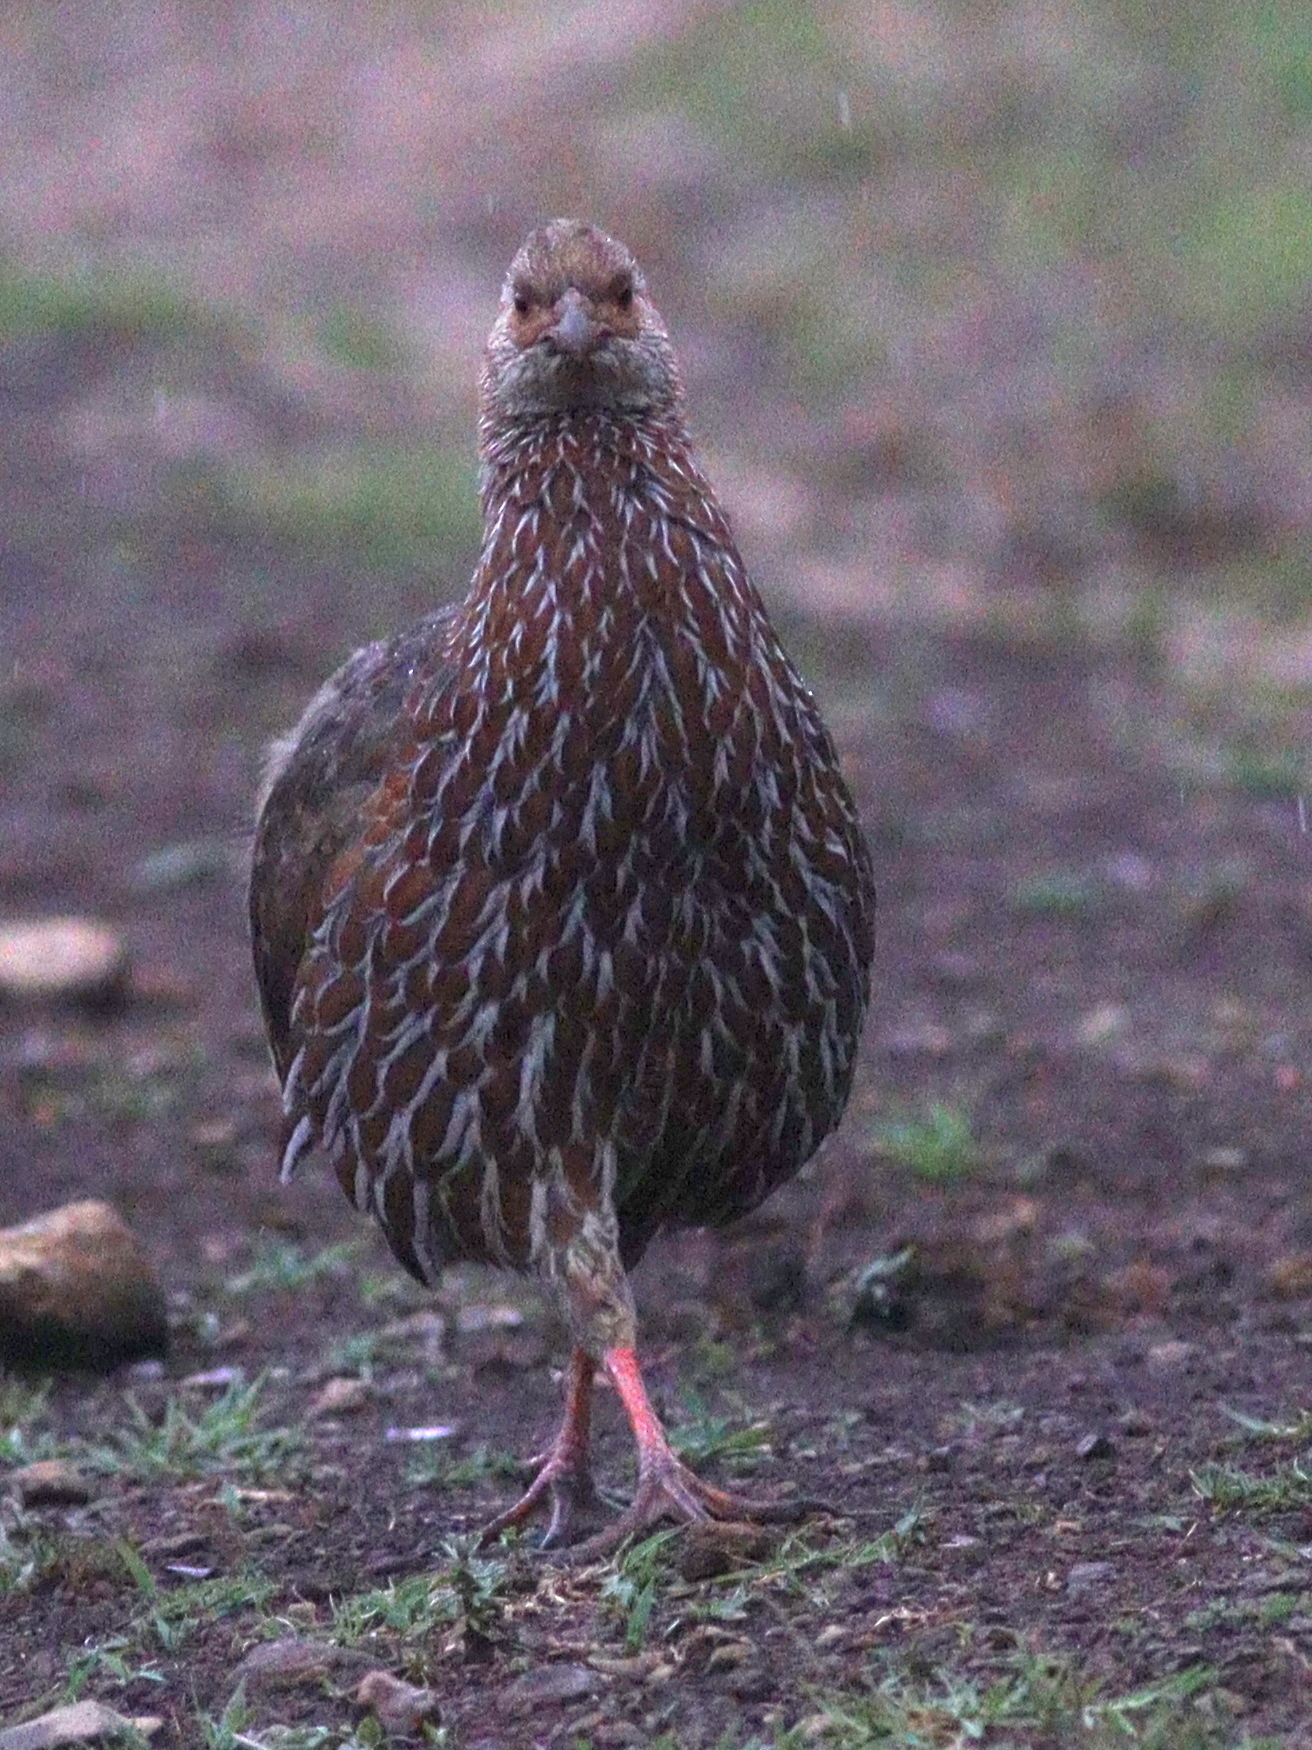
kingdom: Animalia
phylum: Chordata
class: Aves
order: Galliformes
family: Phasianidae
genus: Pternistis
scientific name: Pternistis jacksoni
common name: Jackson's francolin
